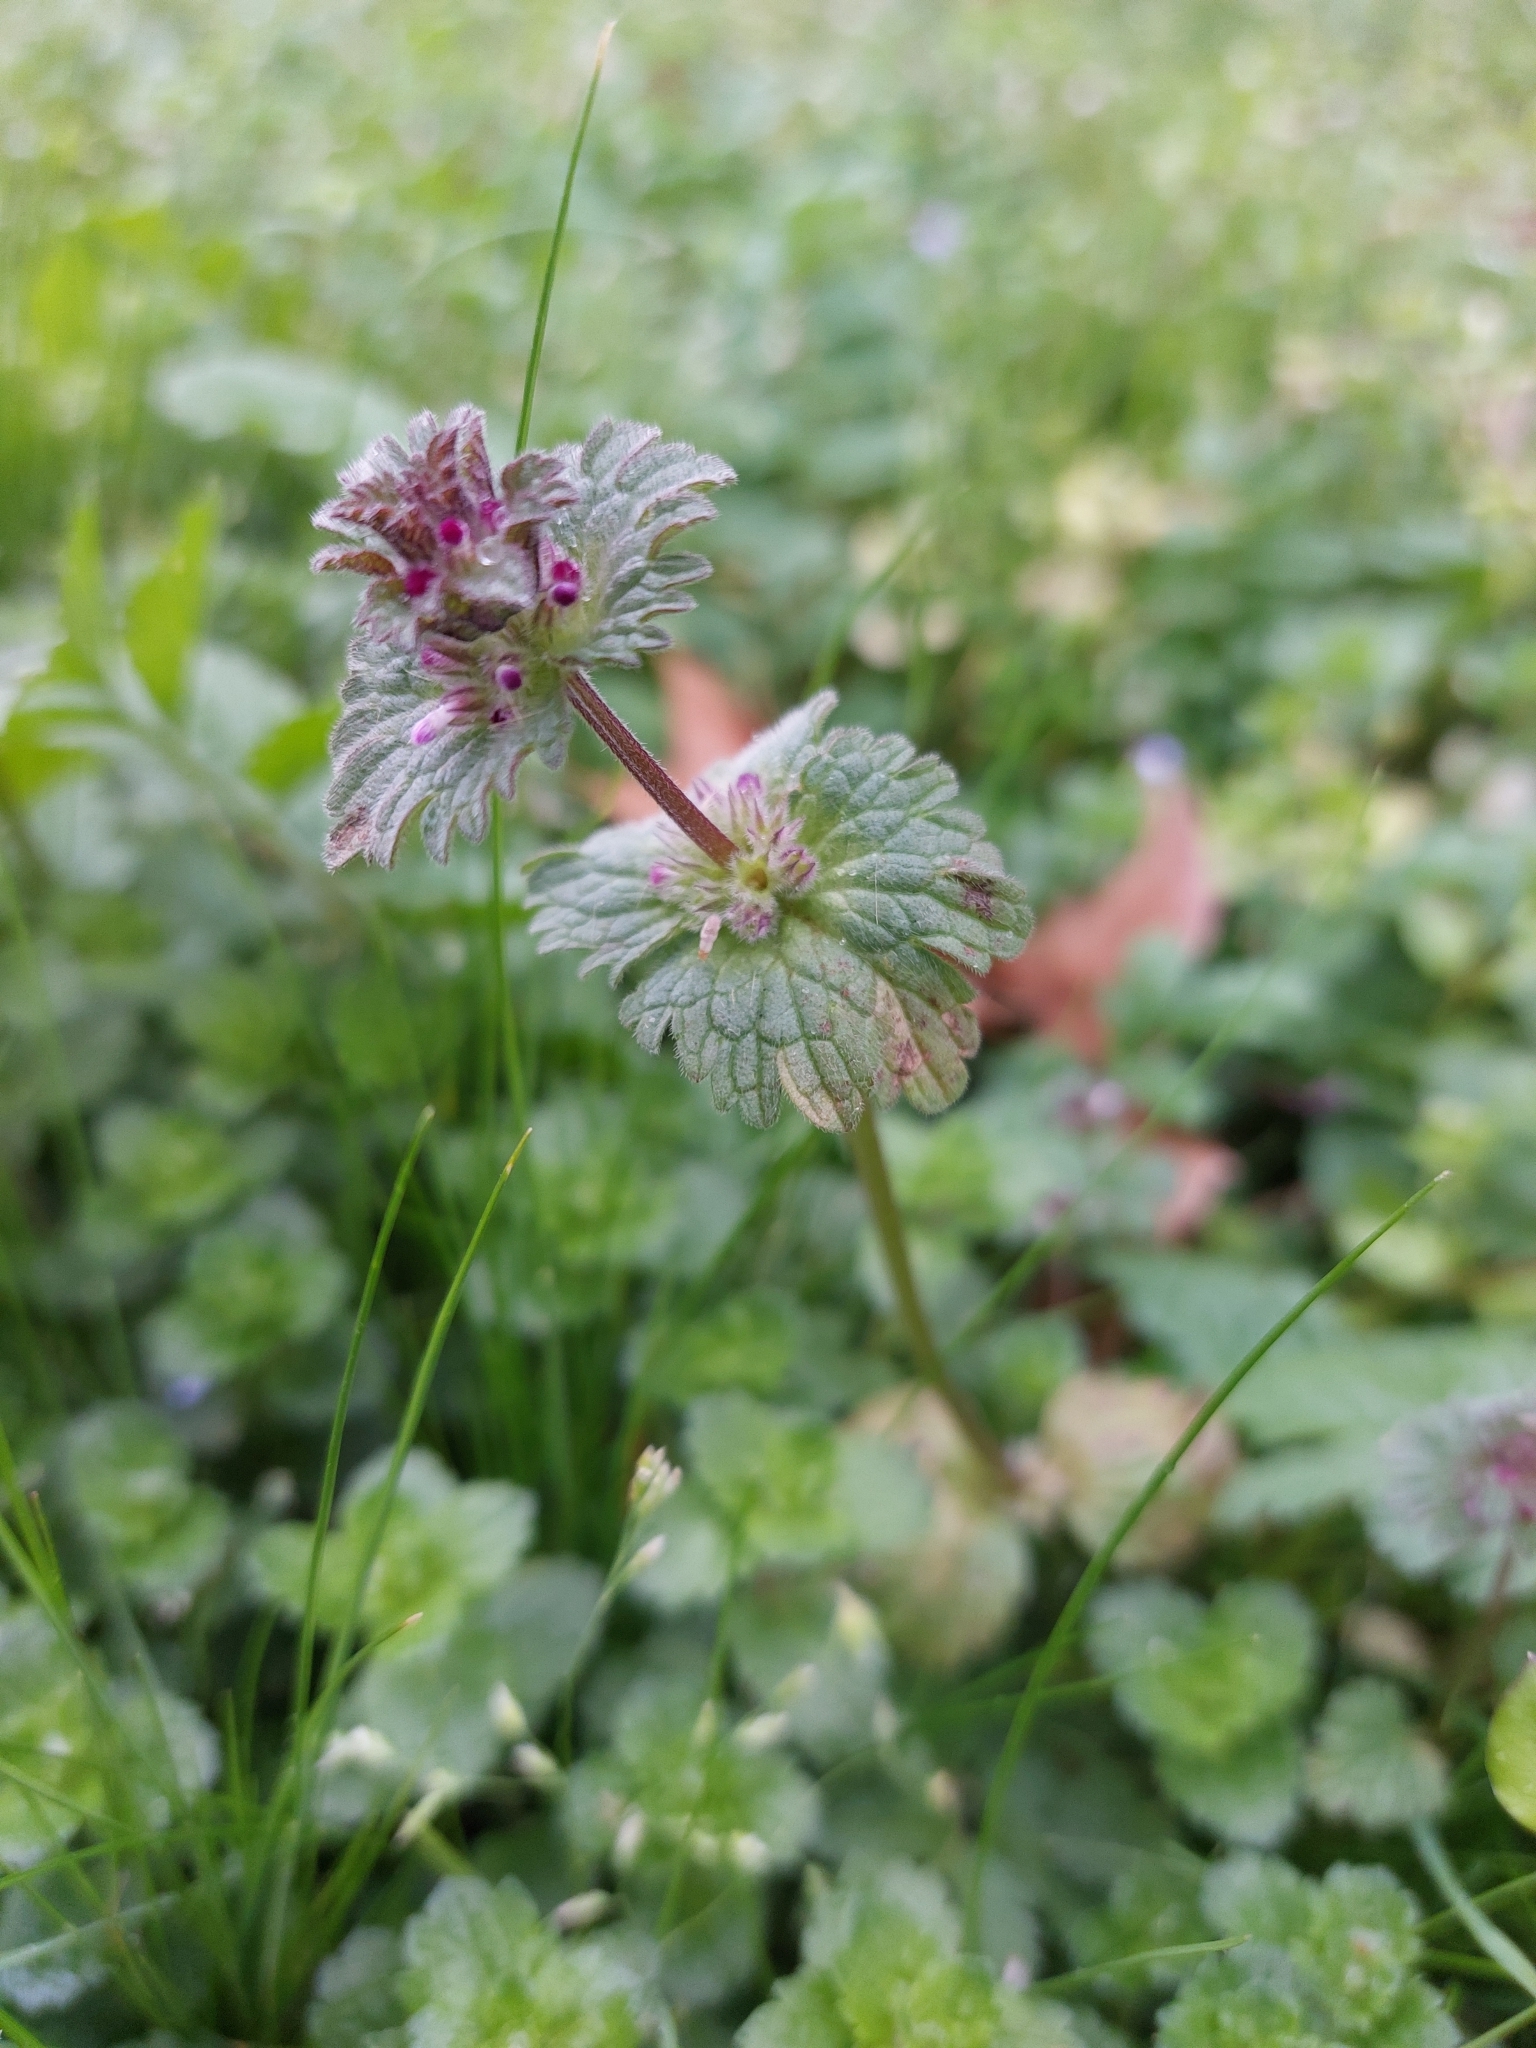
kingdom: Plantae
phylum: Tracheophyta
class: Magnoliopsida
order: Lamiales
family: Lamiaceae
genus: Lamium
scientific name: Lamium amplexicaule
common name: Henbit dead-nettle
